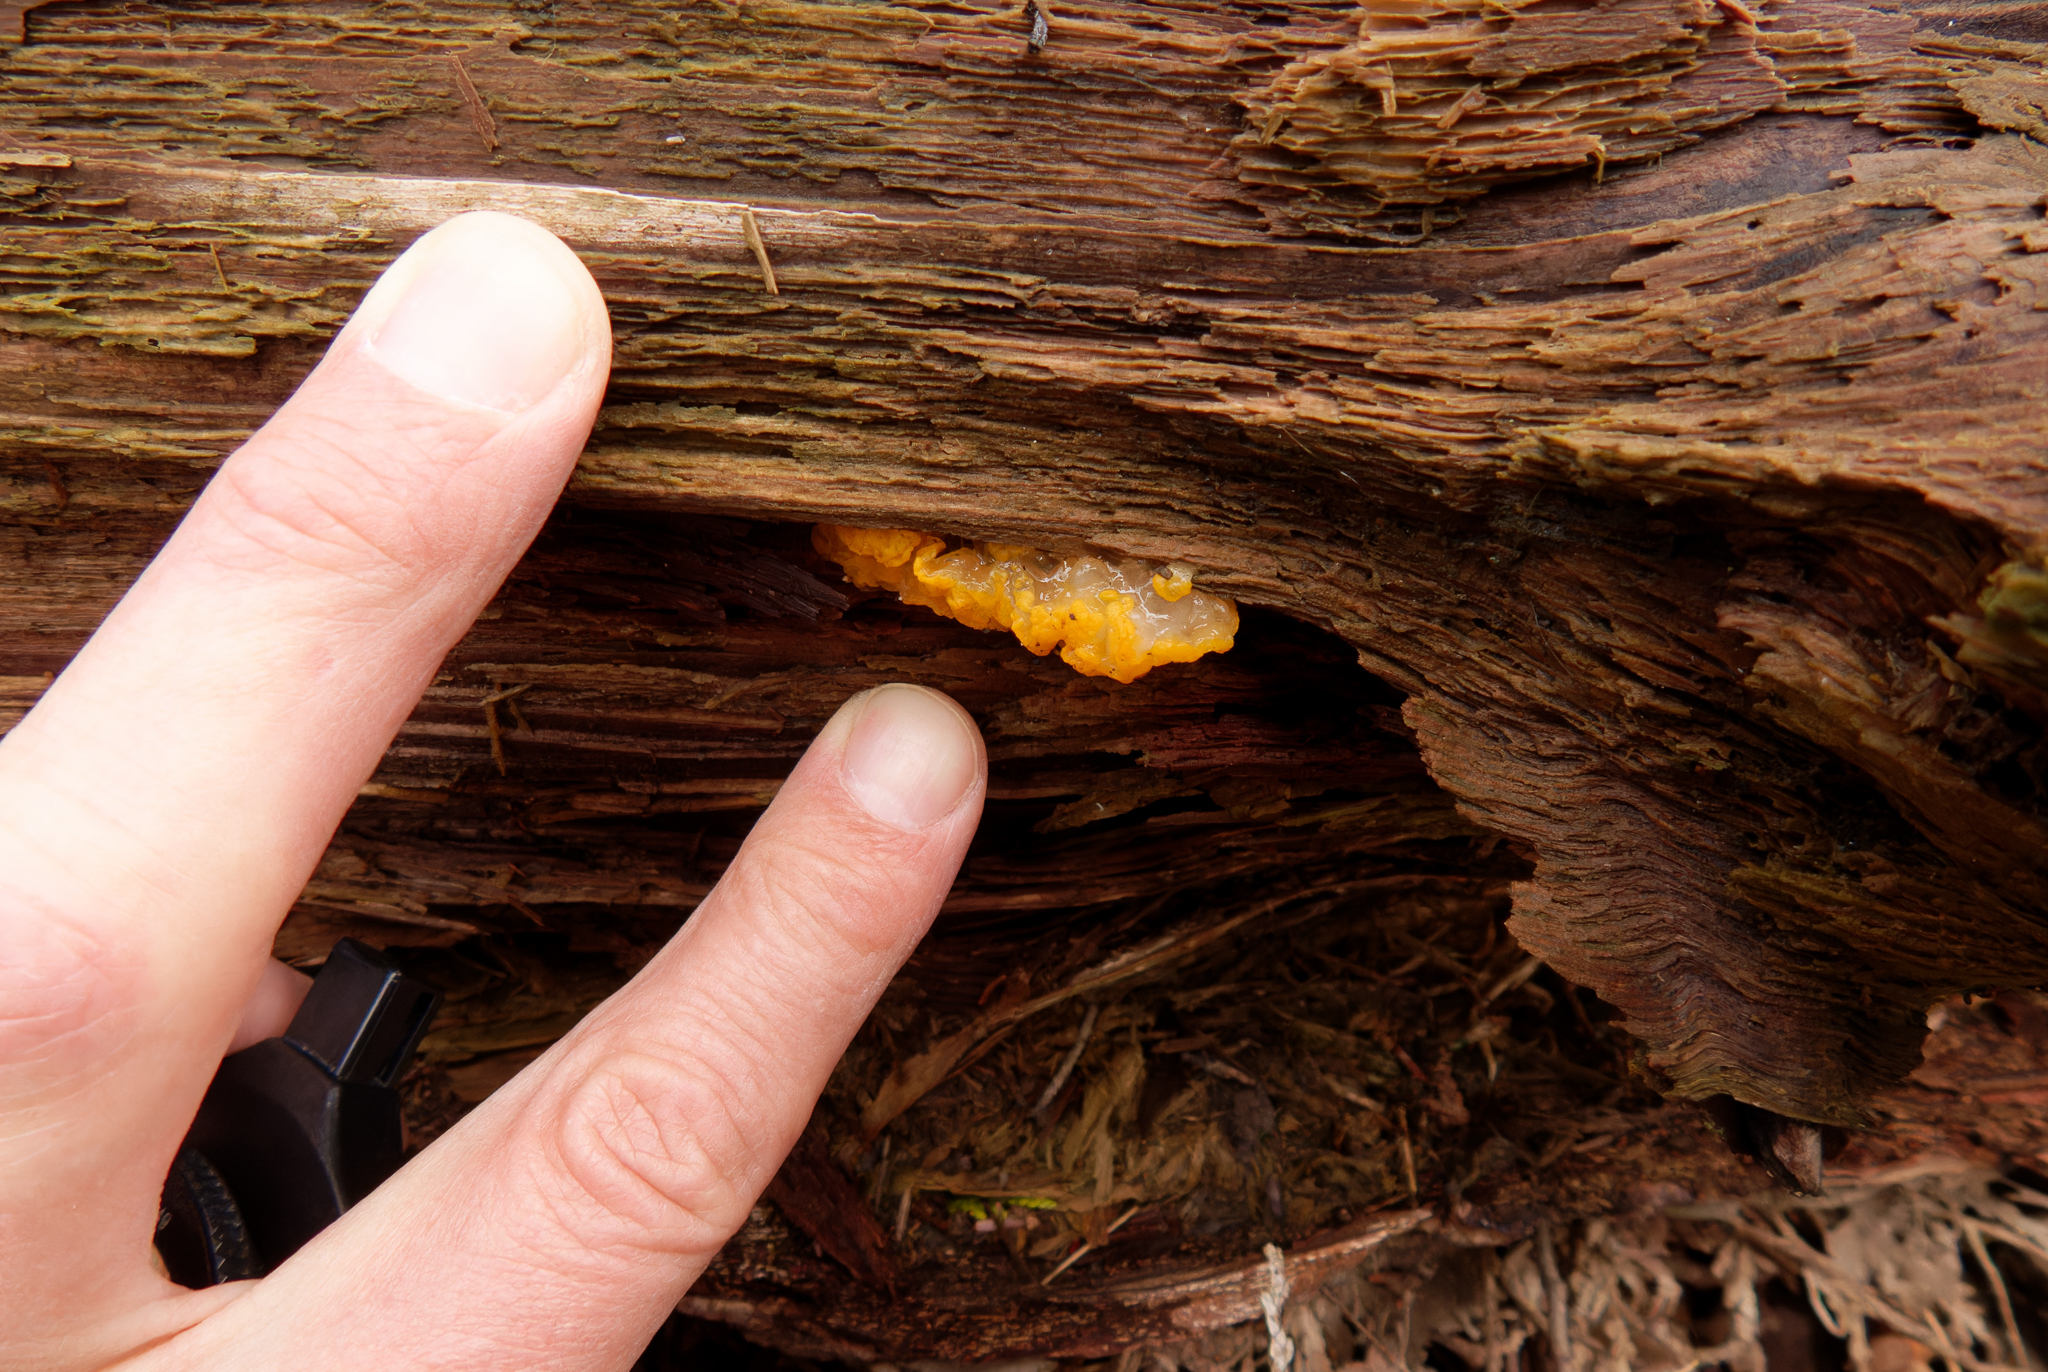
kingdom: Fungi
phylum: Basidiomycota
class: Tremellomycetes
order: Tremellales
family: Tremellaceae
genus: Tremella
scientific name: Tremella mesenterica
